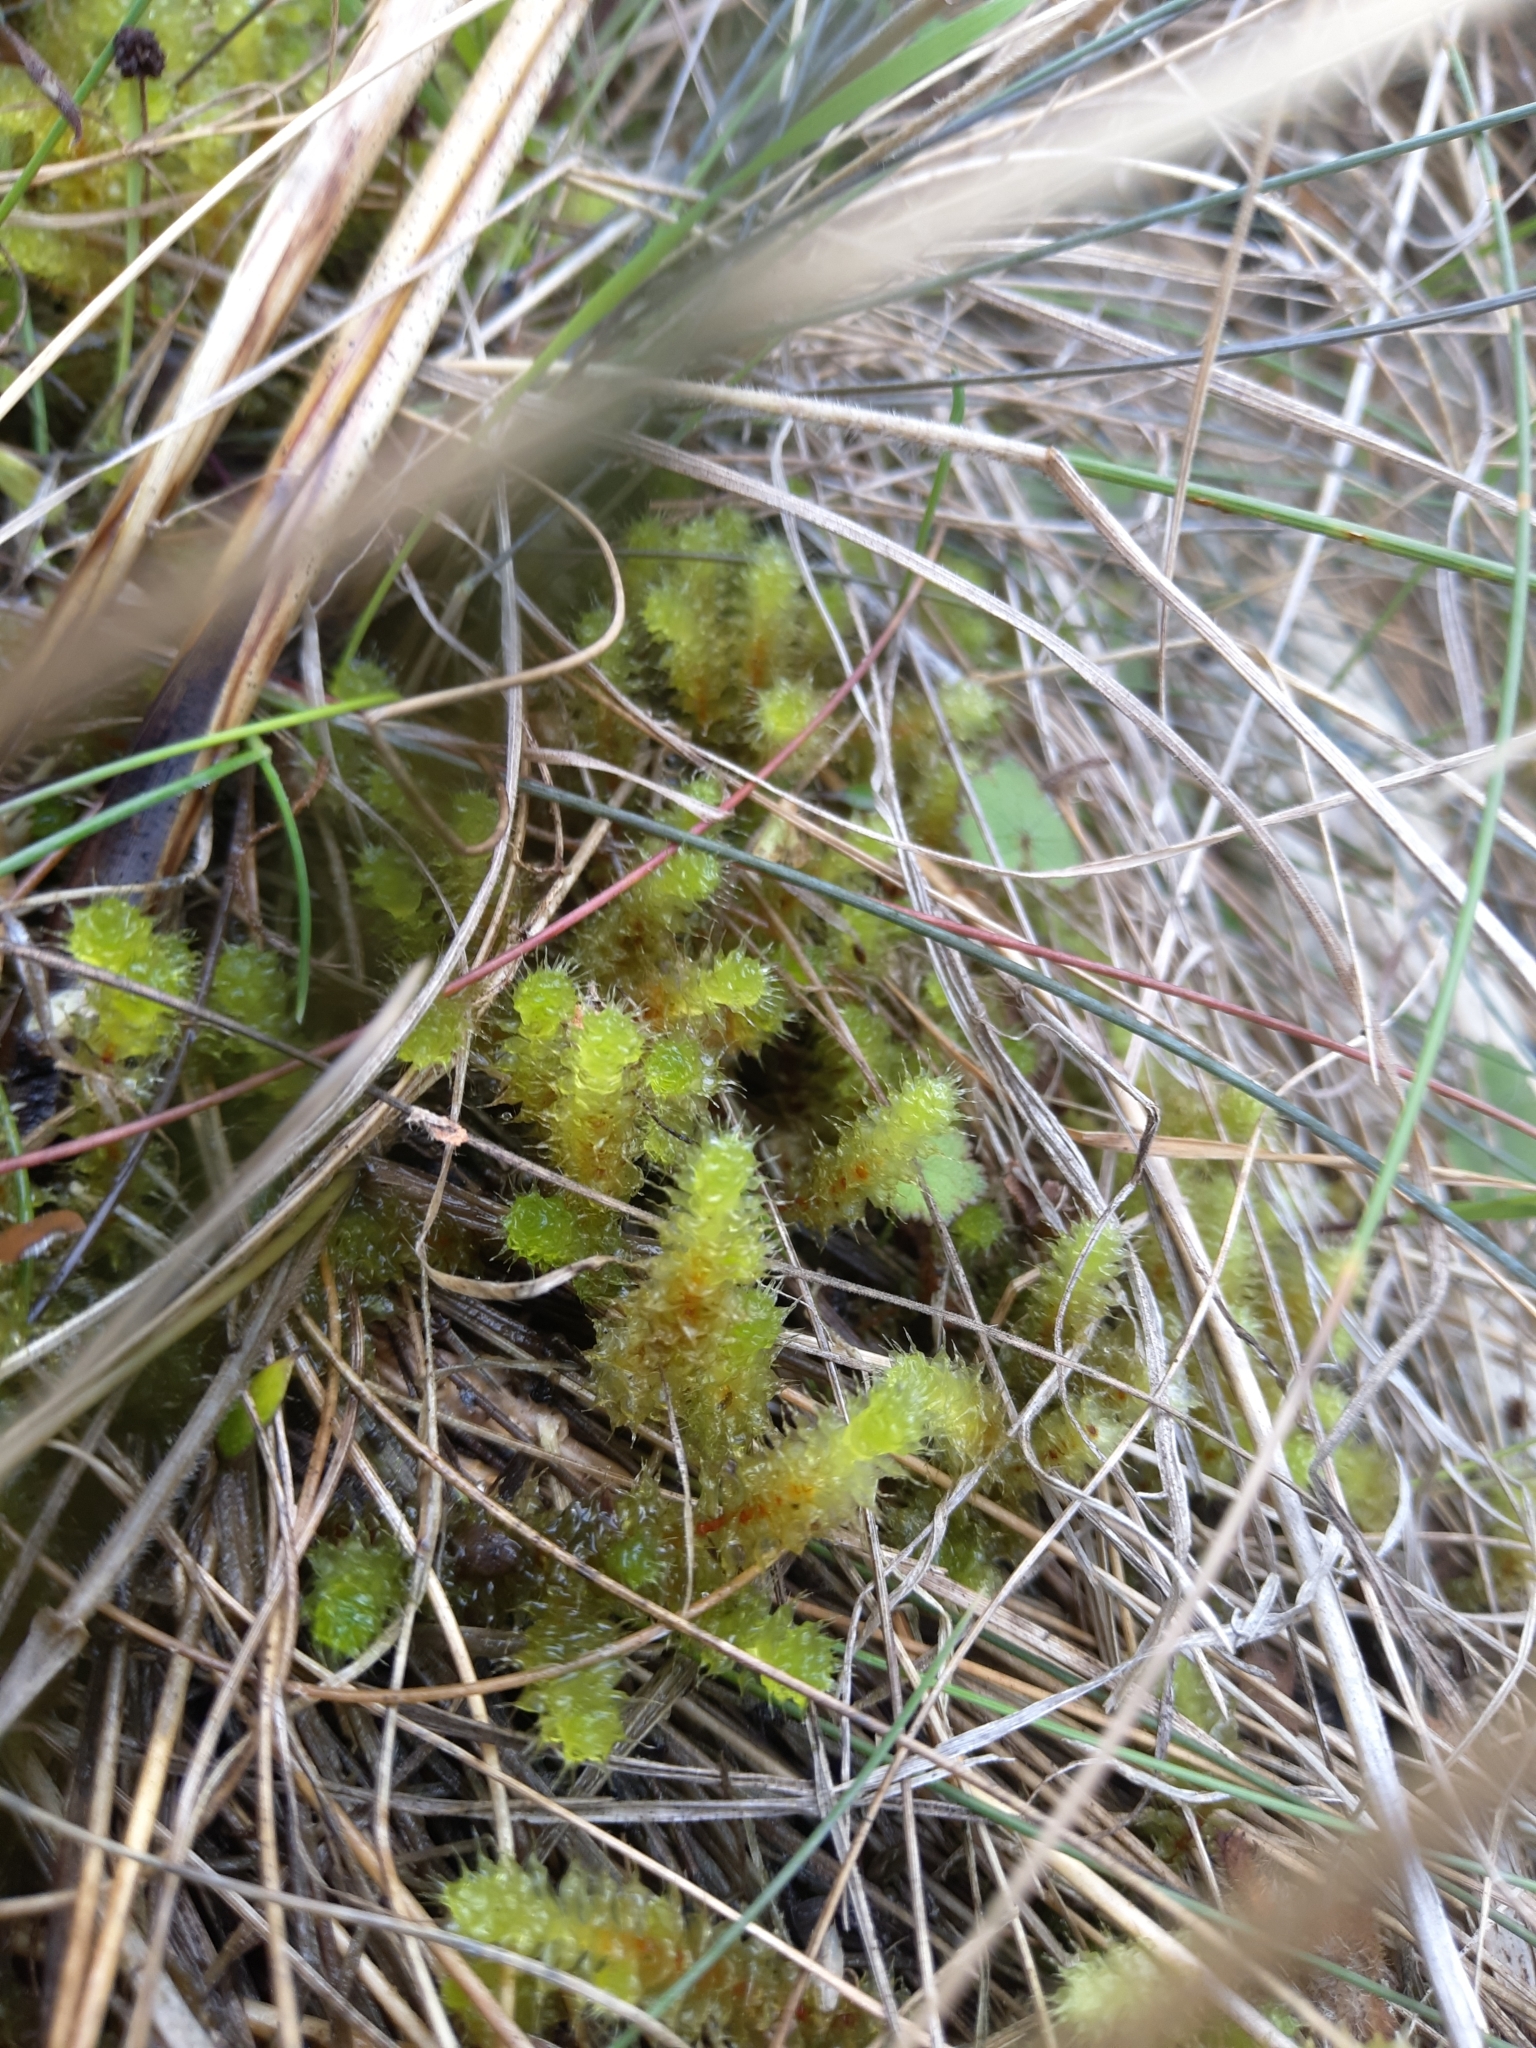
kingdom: Plantae
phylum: Bryophyta
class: Bryopsida
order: Ptychomniales
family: Ptychomniaceae
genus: Ptychomnion
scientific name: Ptychomnion aciculare
